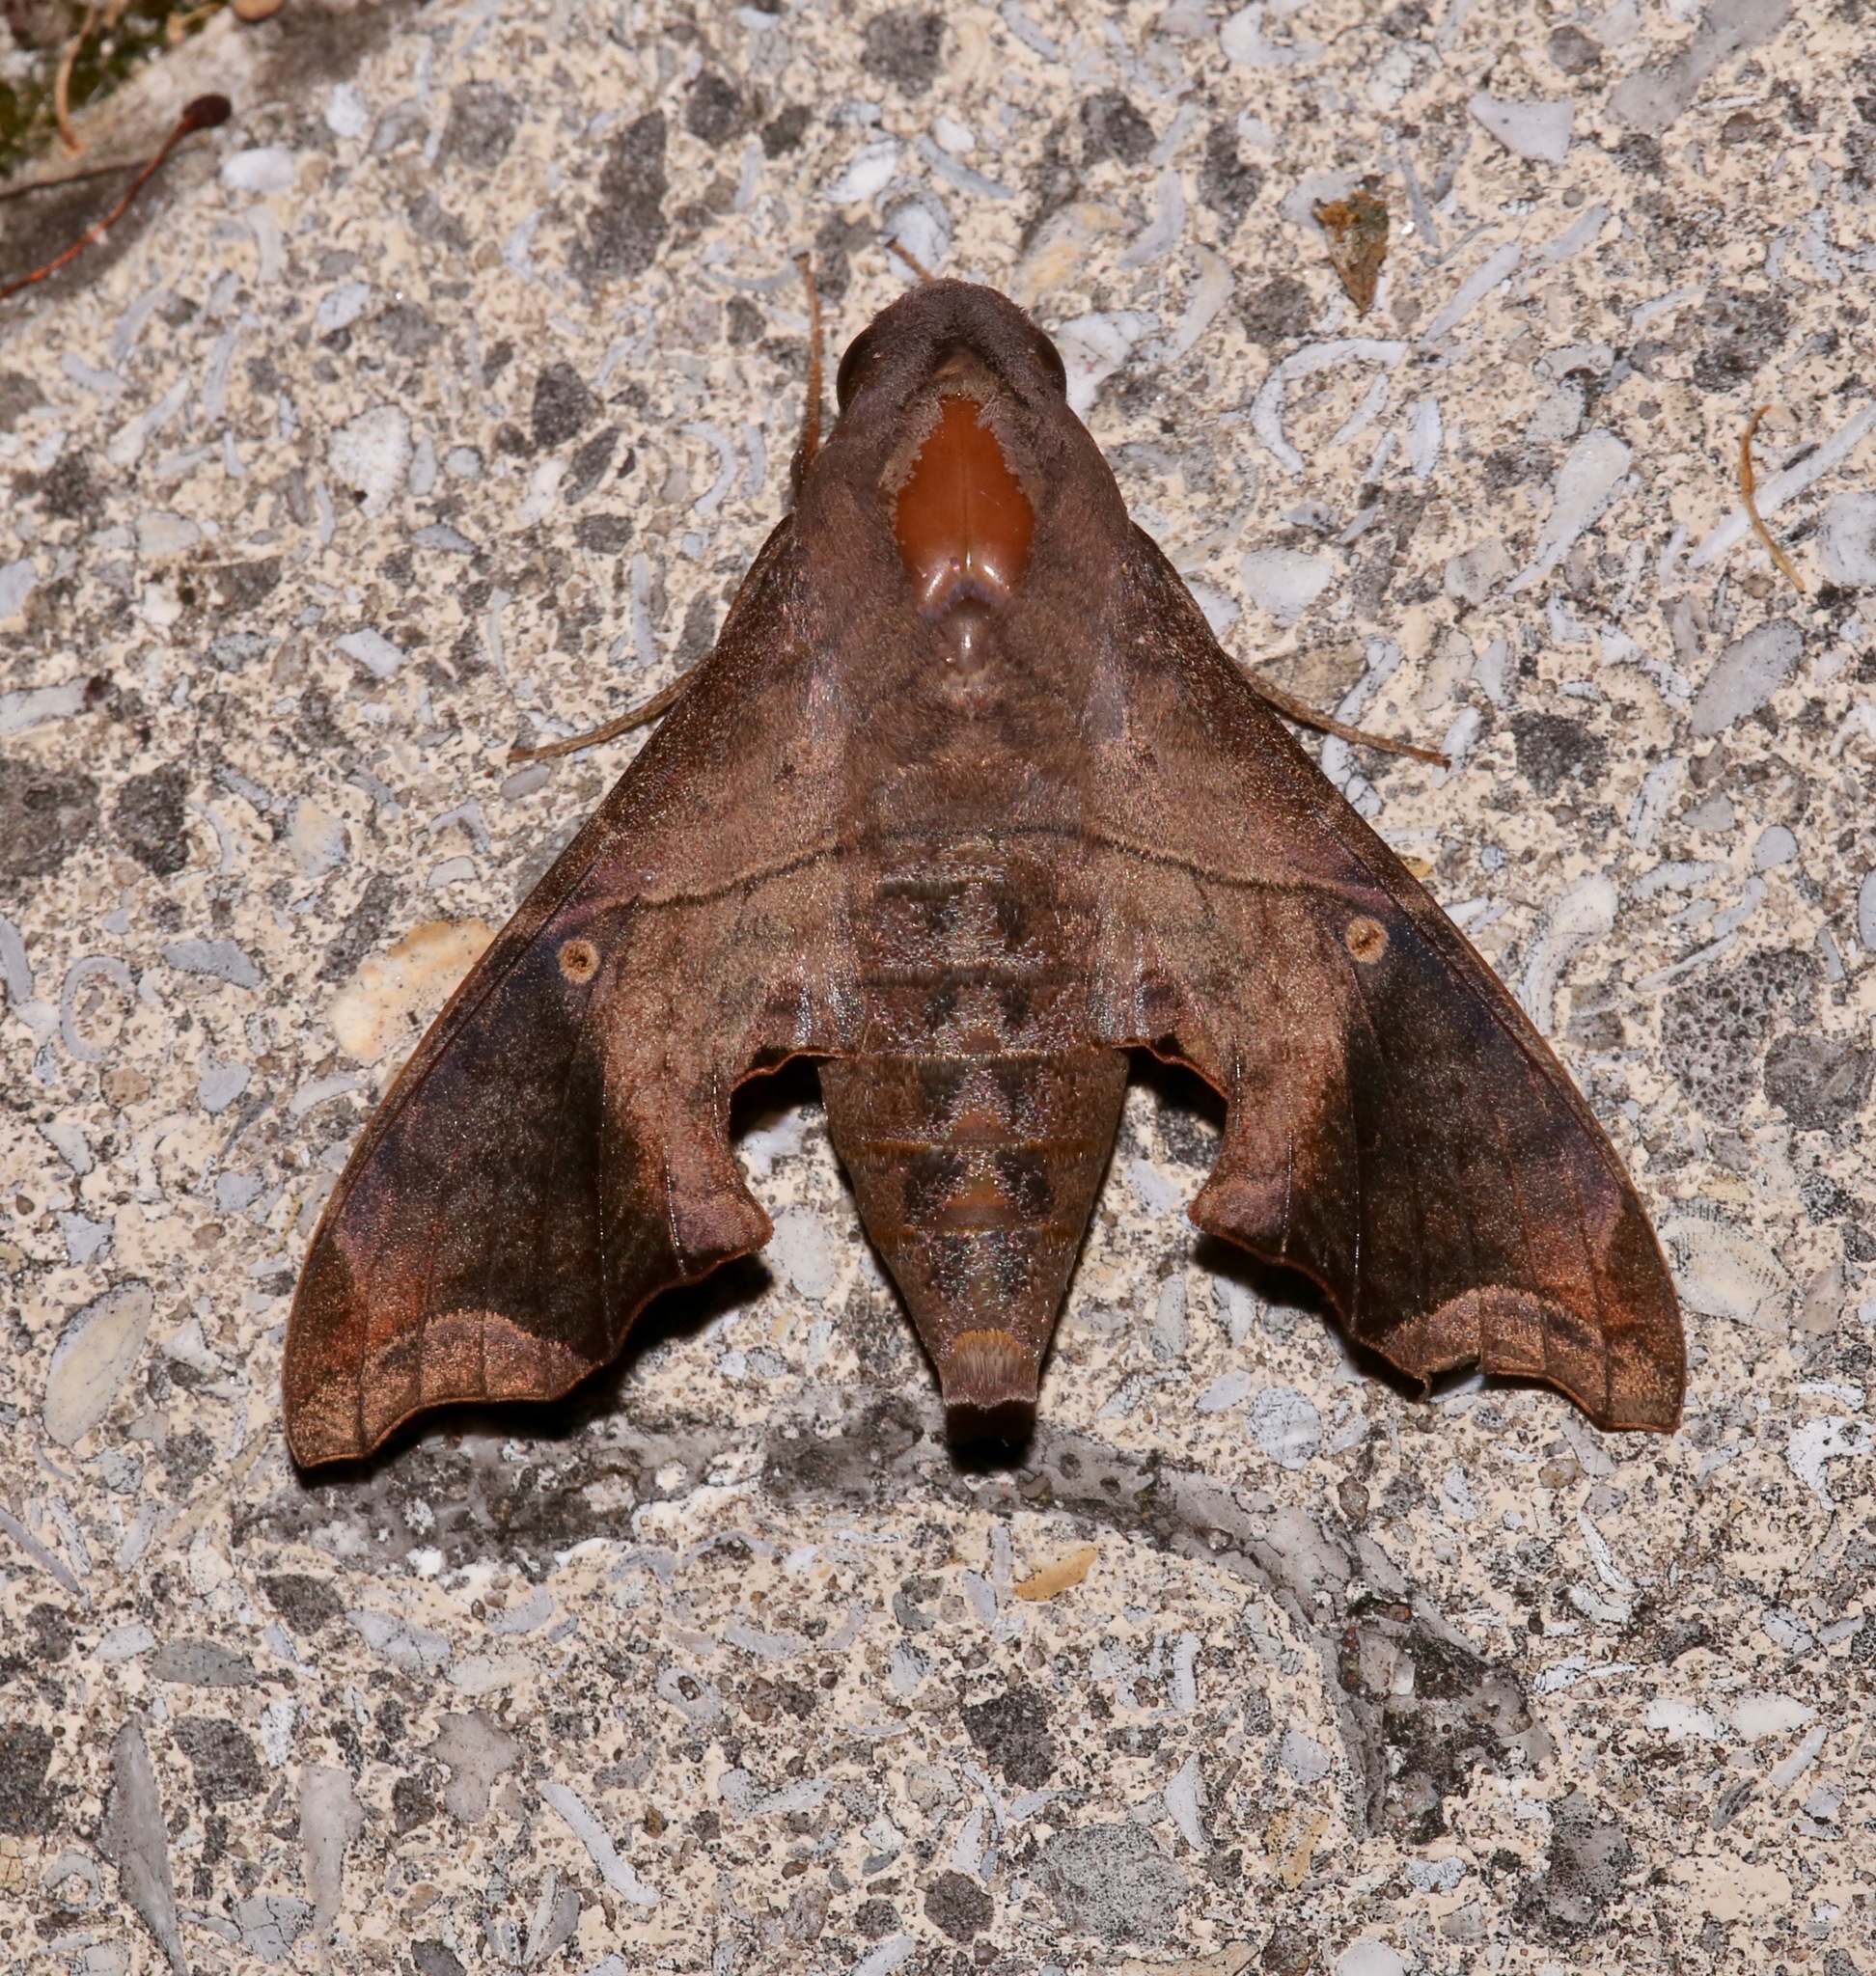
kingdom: Animalia
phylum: Arthropoda
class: Insecta
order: Lepidoptera
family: Sphingidae
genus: Enyo
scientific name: Enyo lugubris
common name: Mournful sphinx
